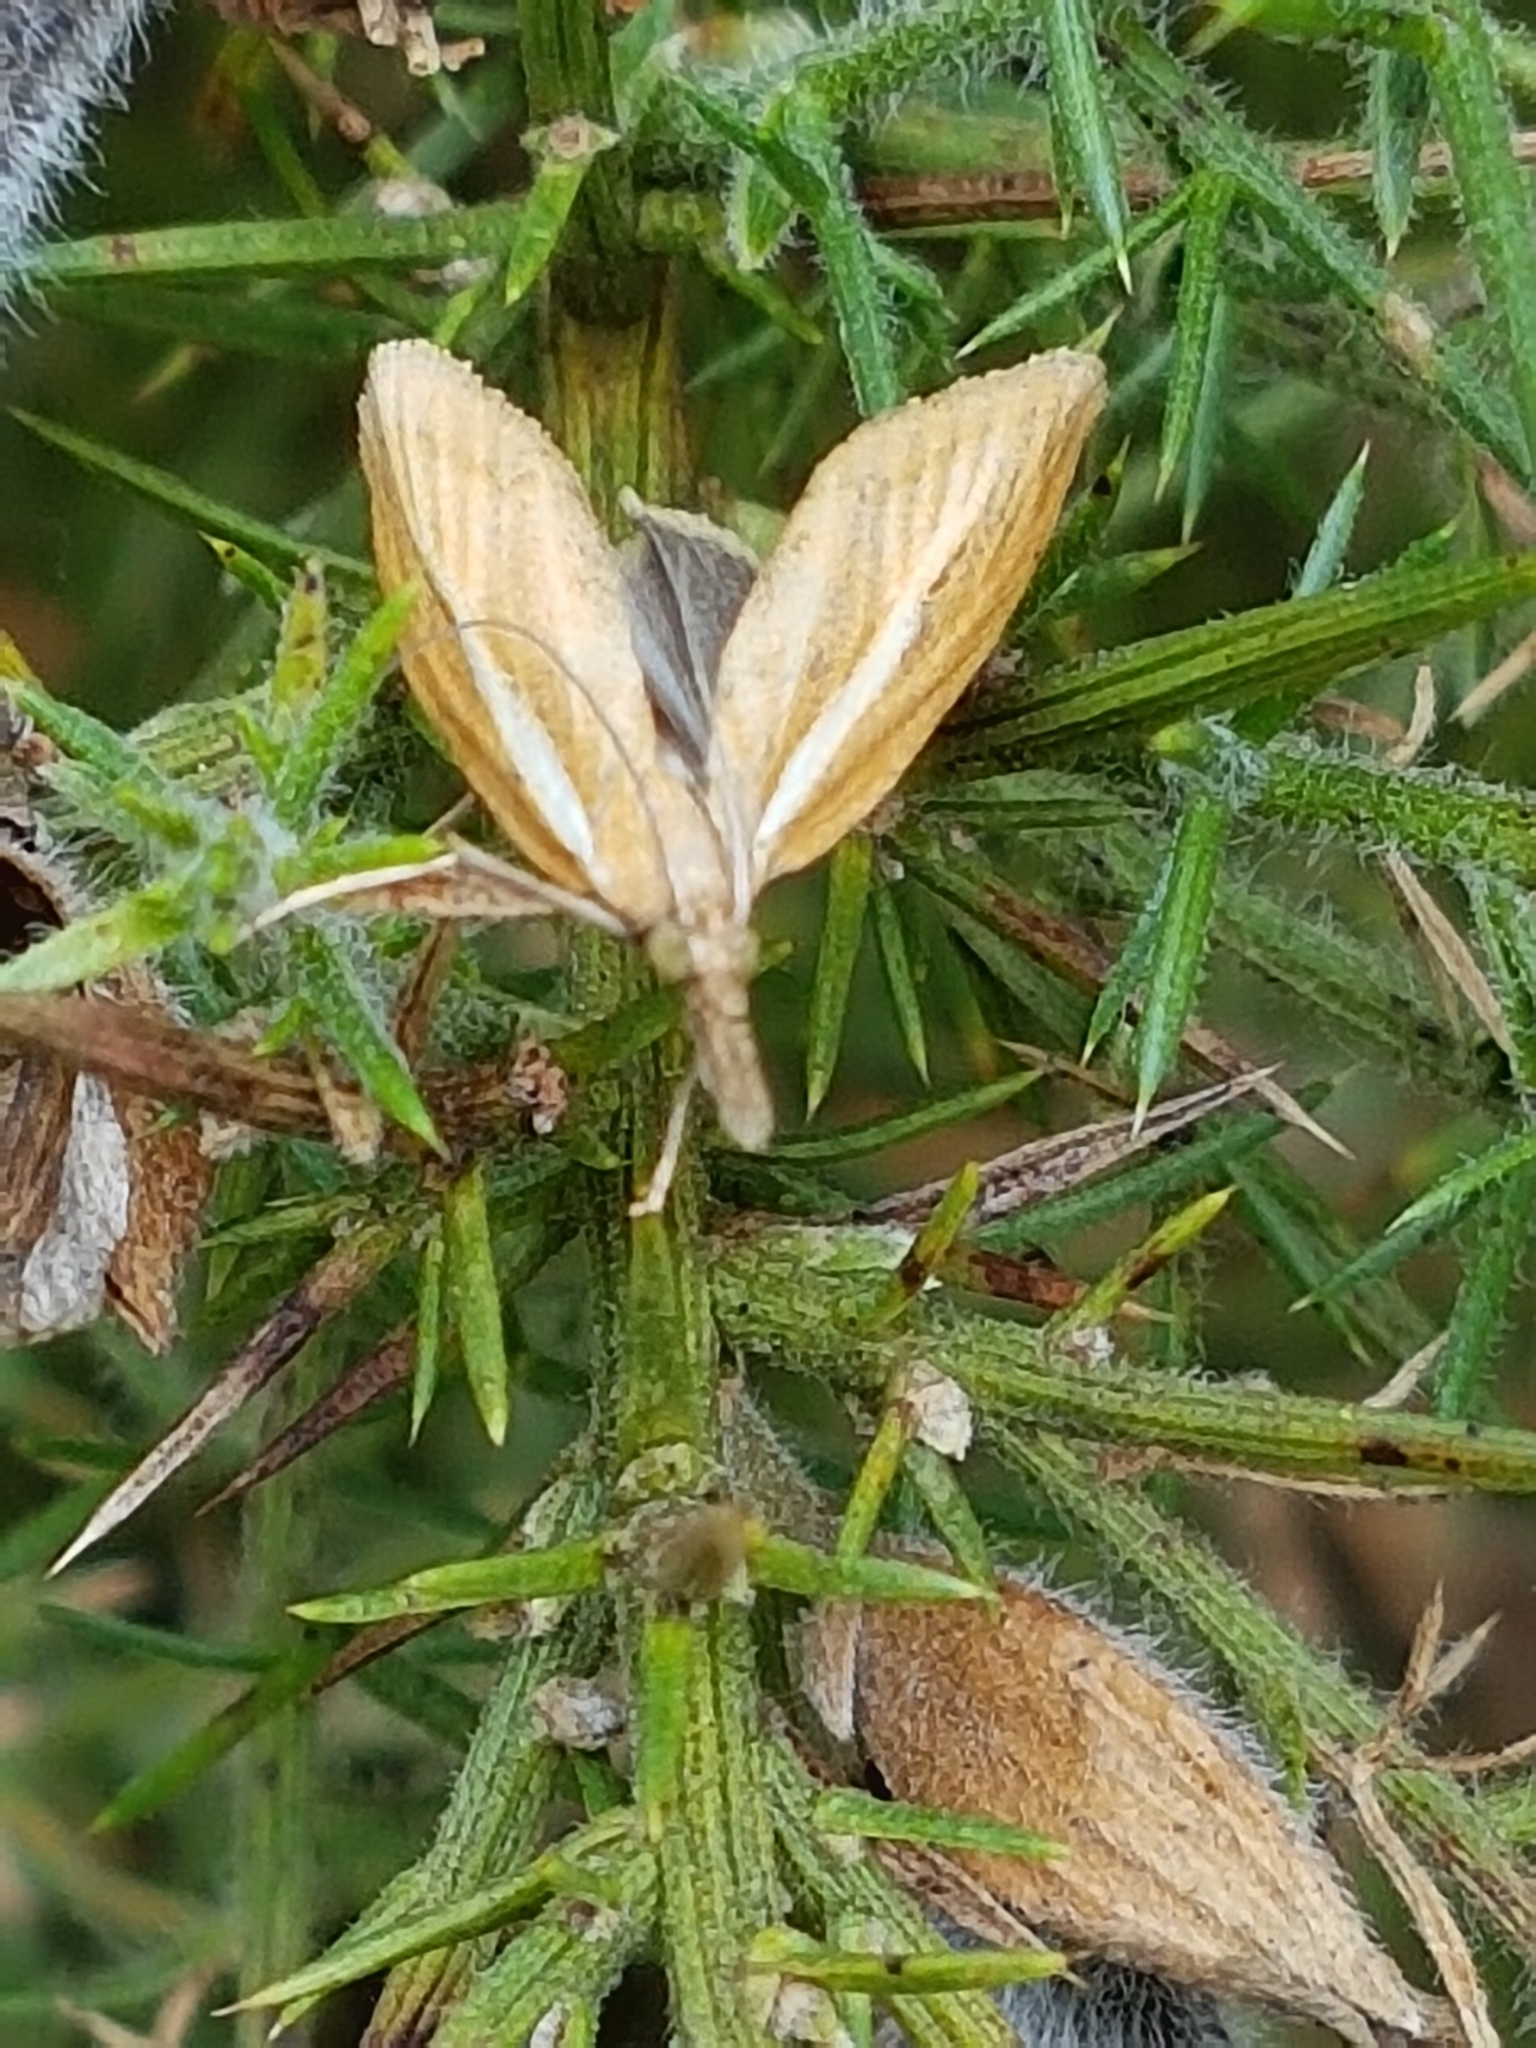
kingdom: Animalia
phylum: Arthropoda
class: Insecta
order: Lepidoptera
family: Crambidae
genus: Agriphila
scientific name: Agriphila tristellus
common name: Common grass-veneer
